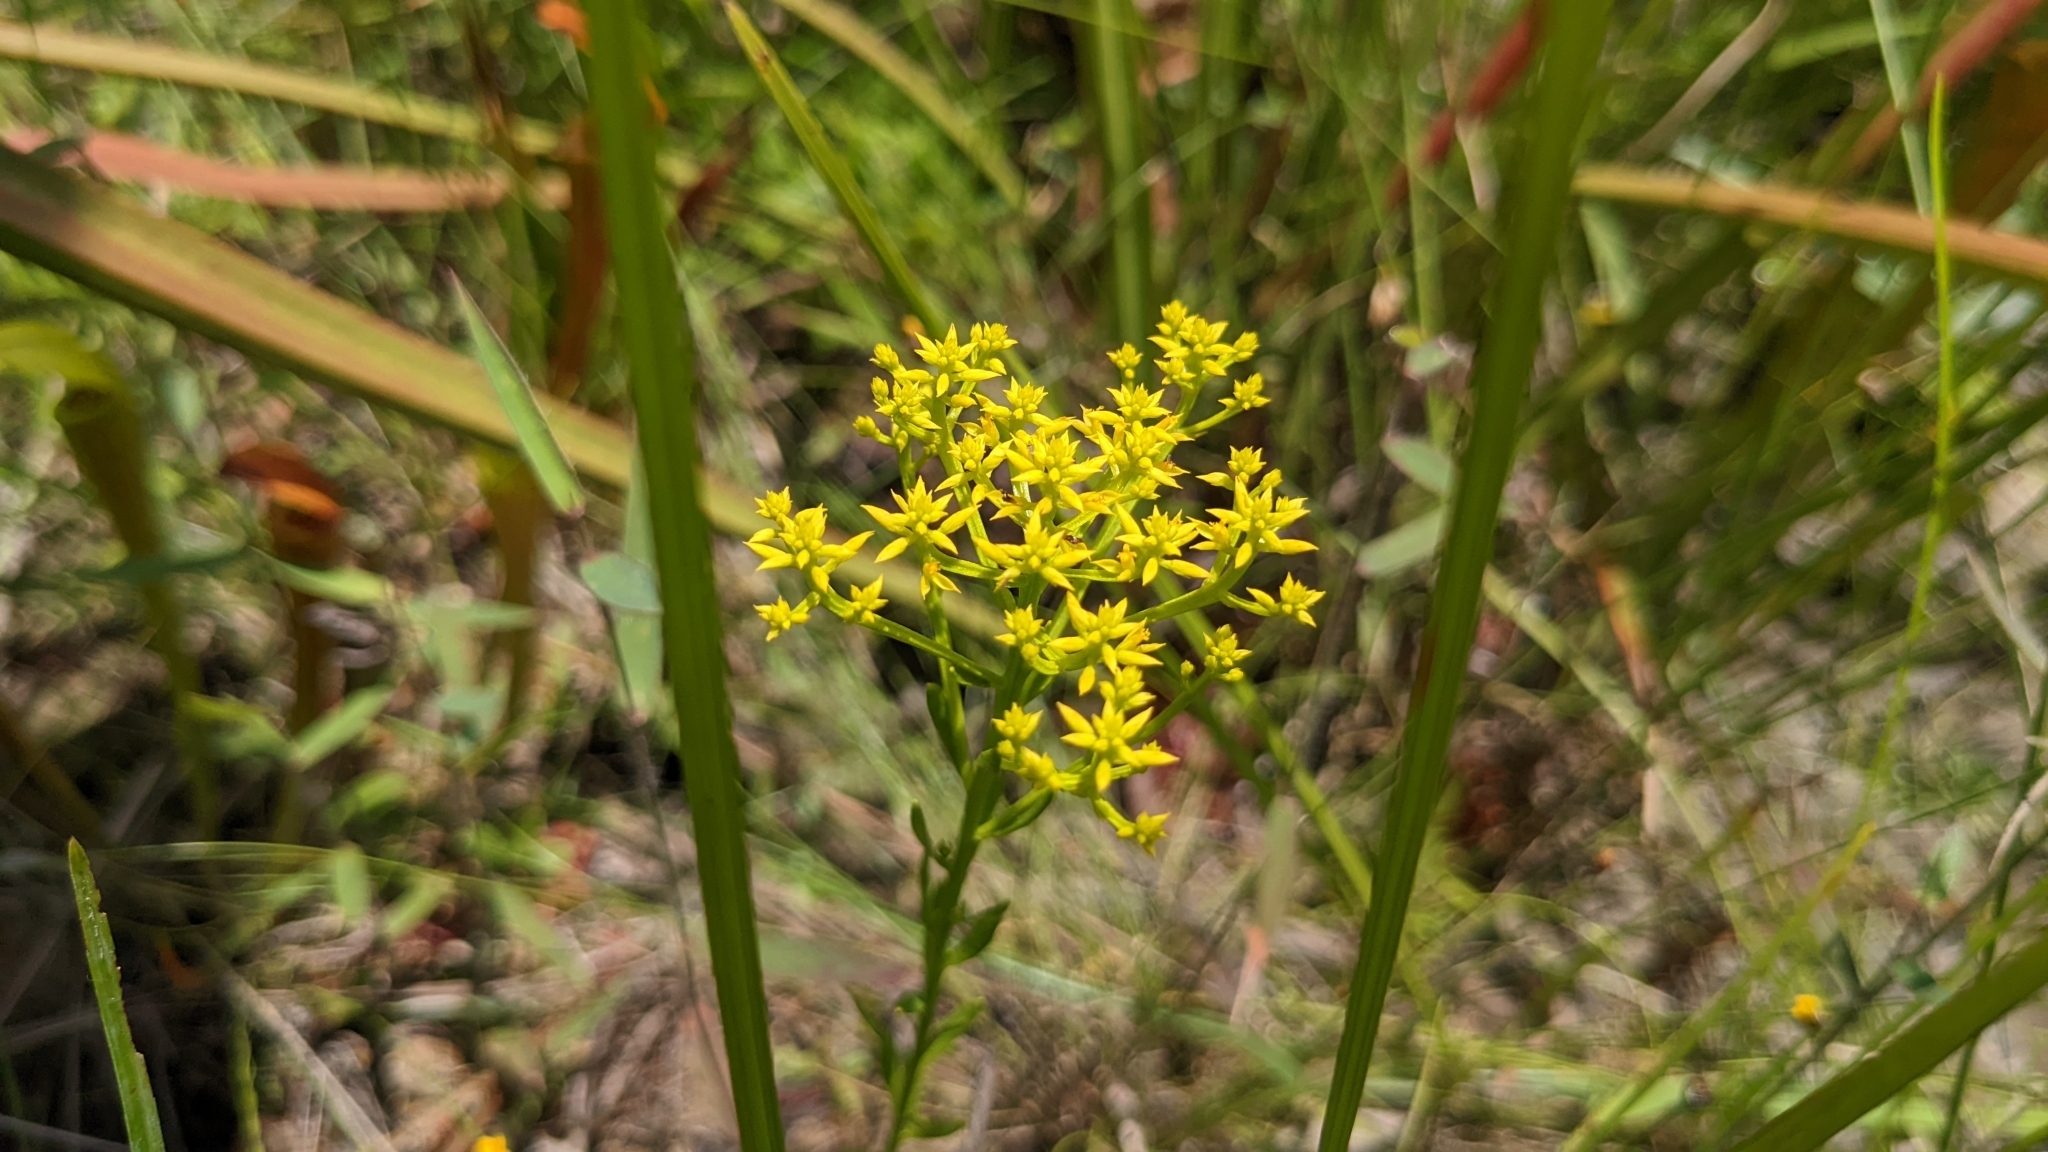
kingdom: Plantae
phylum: Tracheophyta
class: Magnoliopsida
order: Fabales
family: Polygalaceae
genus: Polygala
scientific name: Polygala ramosa
